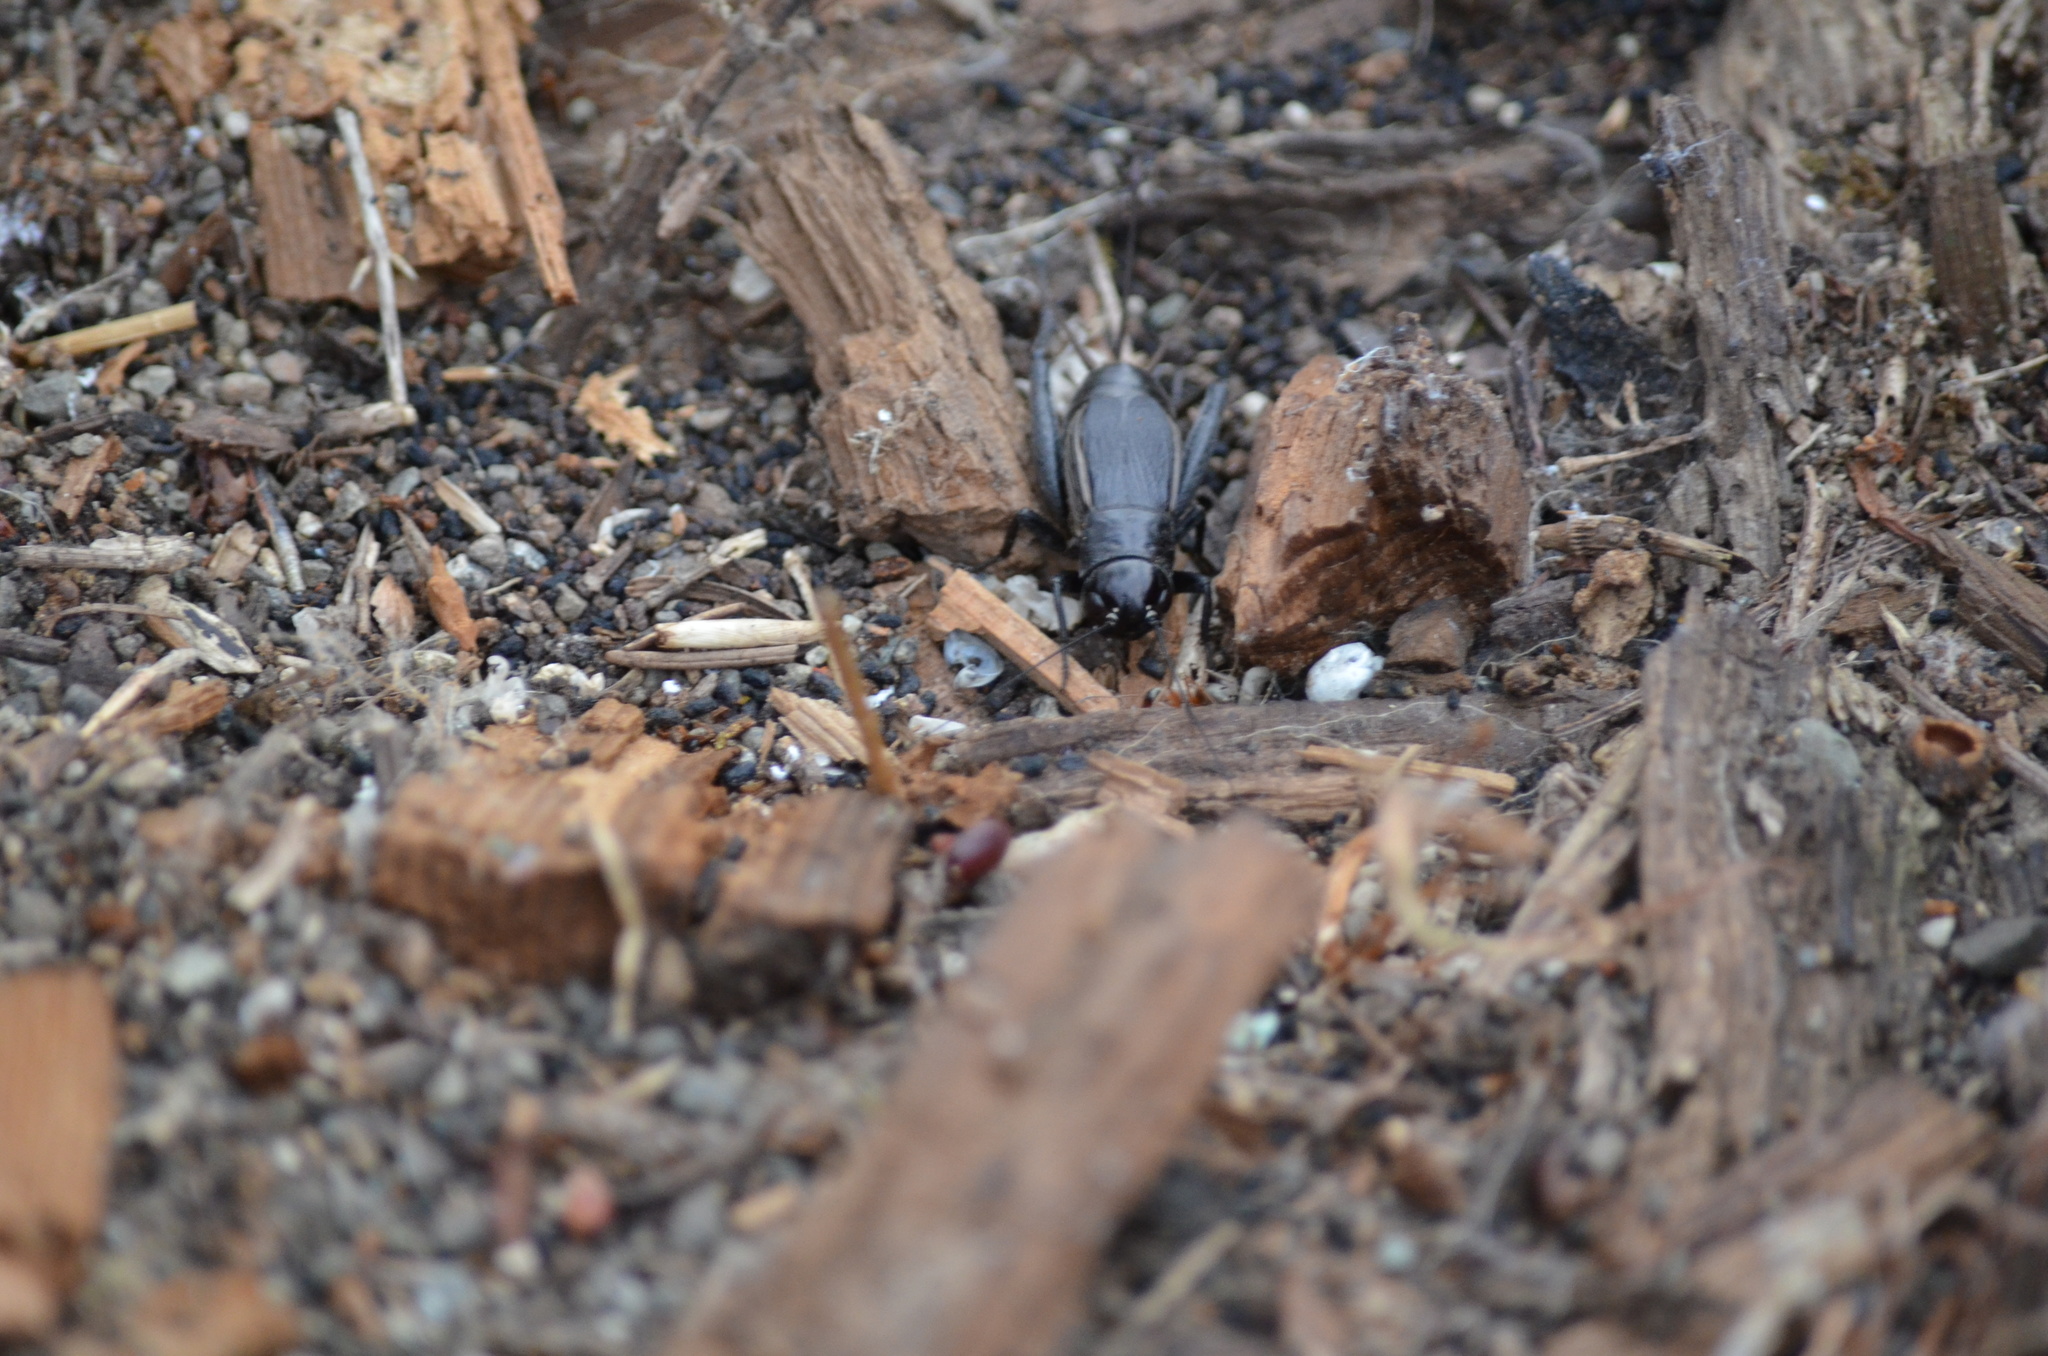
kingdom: Animalia
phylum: Arthropoda
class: Insecta
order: Orthoptera
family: Gryllidae
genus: Gryllus
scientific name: Gryllus pennsylvanicus
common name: Fall field cricket
